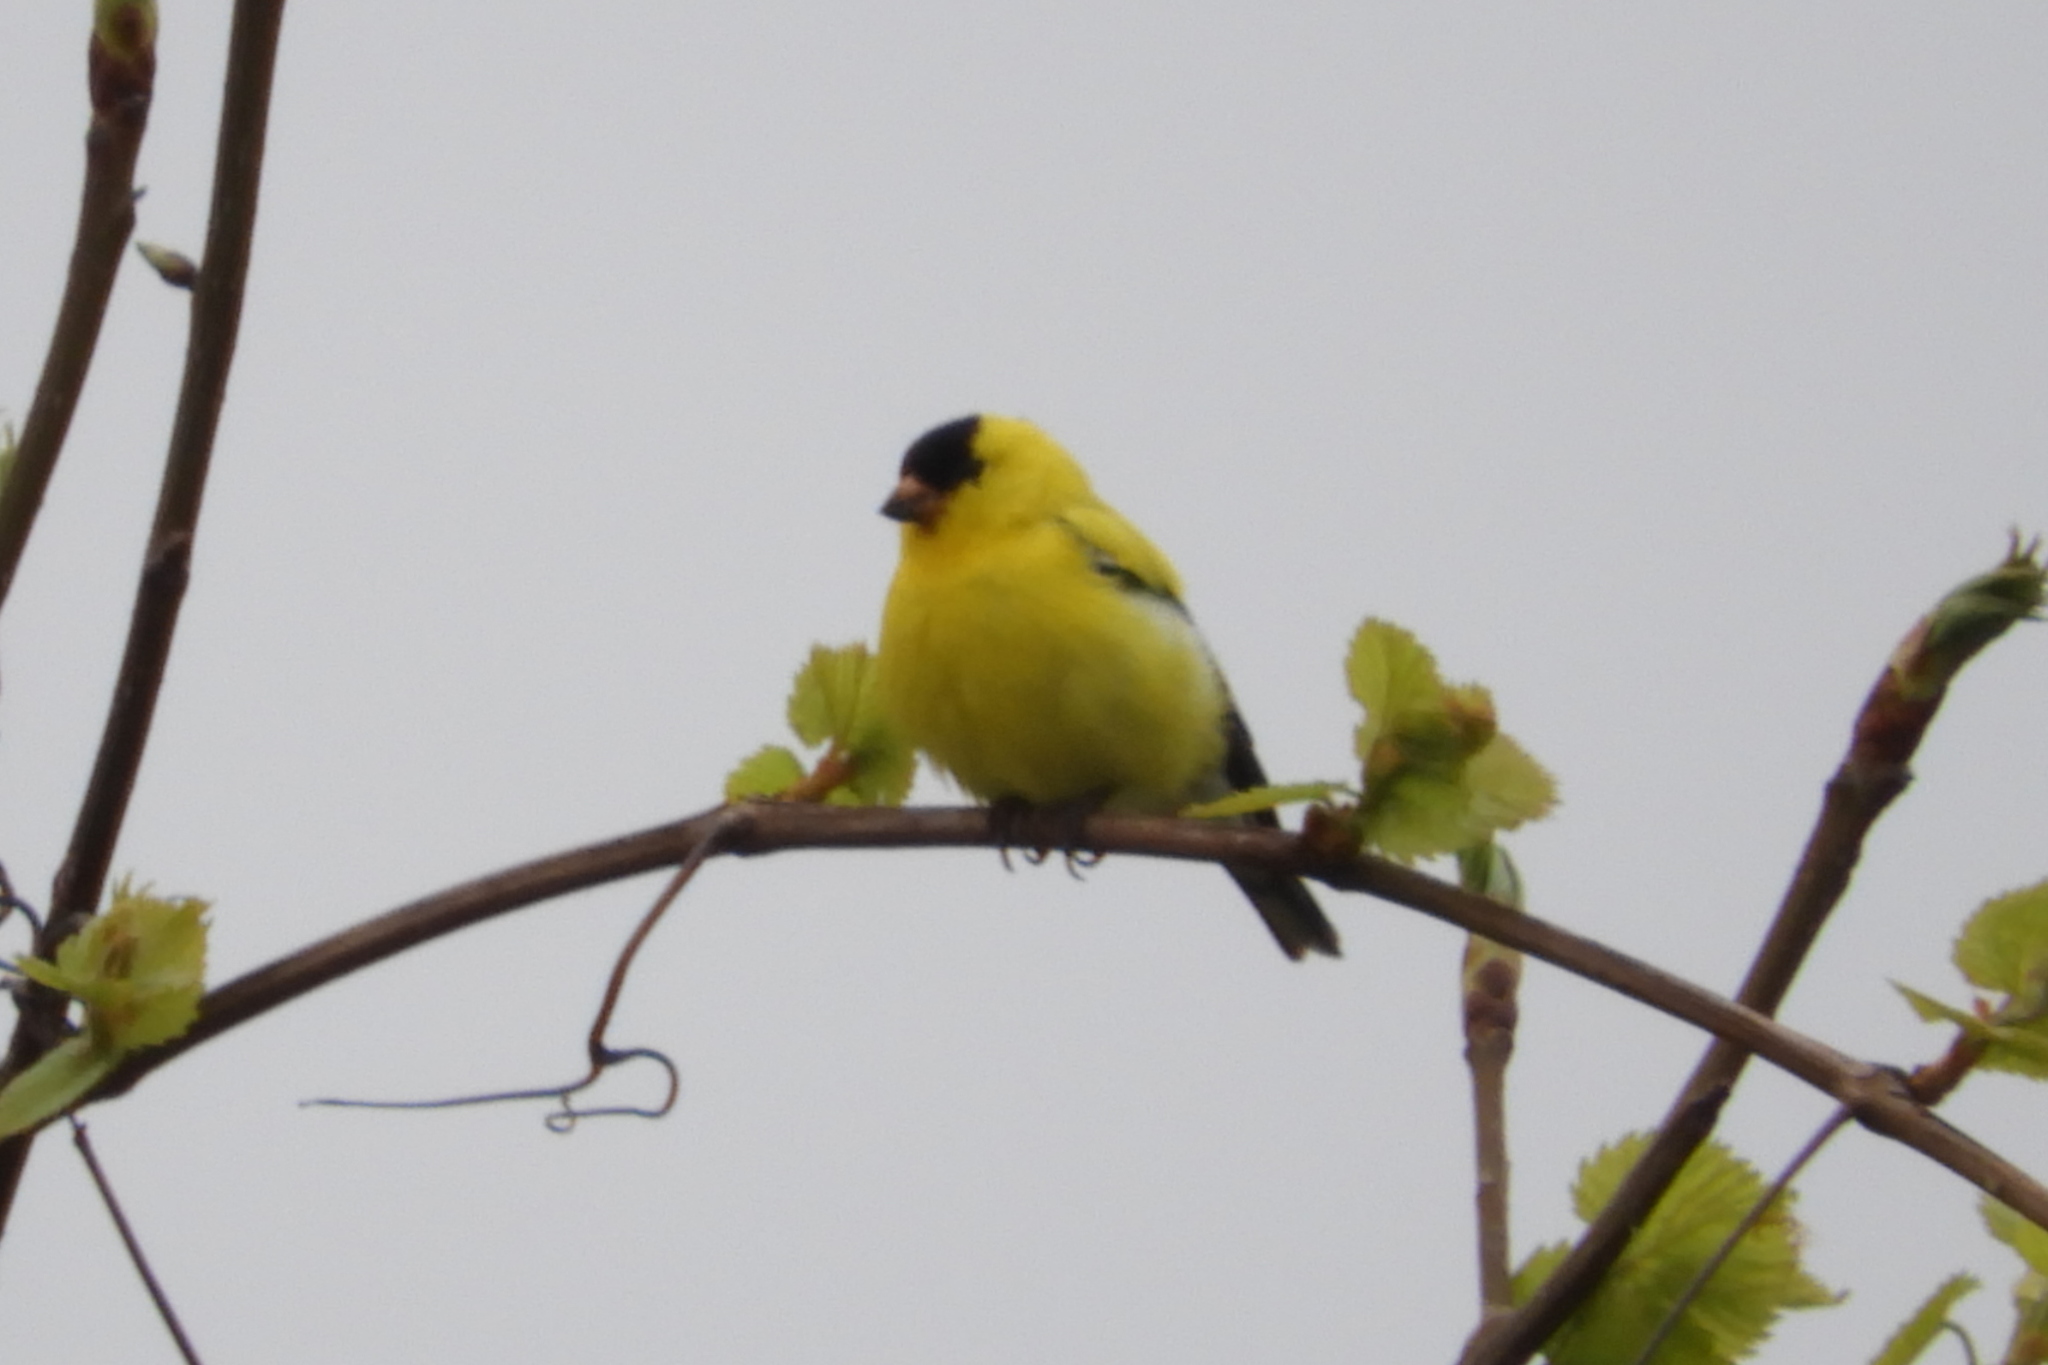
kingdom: Animalia
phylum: Chordata
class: Aves
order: Passeriformes
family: Fringillidae
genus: Spinus
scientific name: Spinus tristis
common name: American goldfinch
